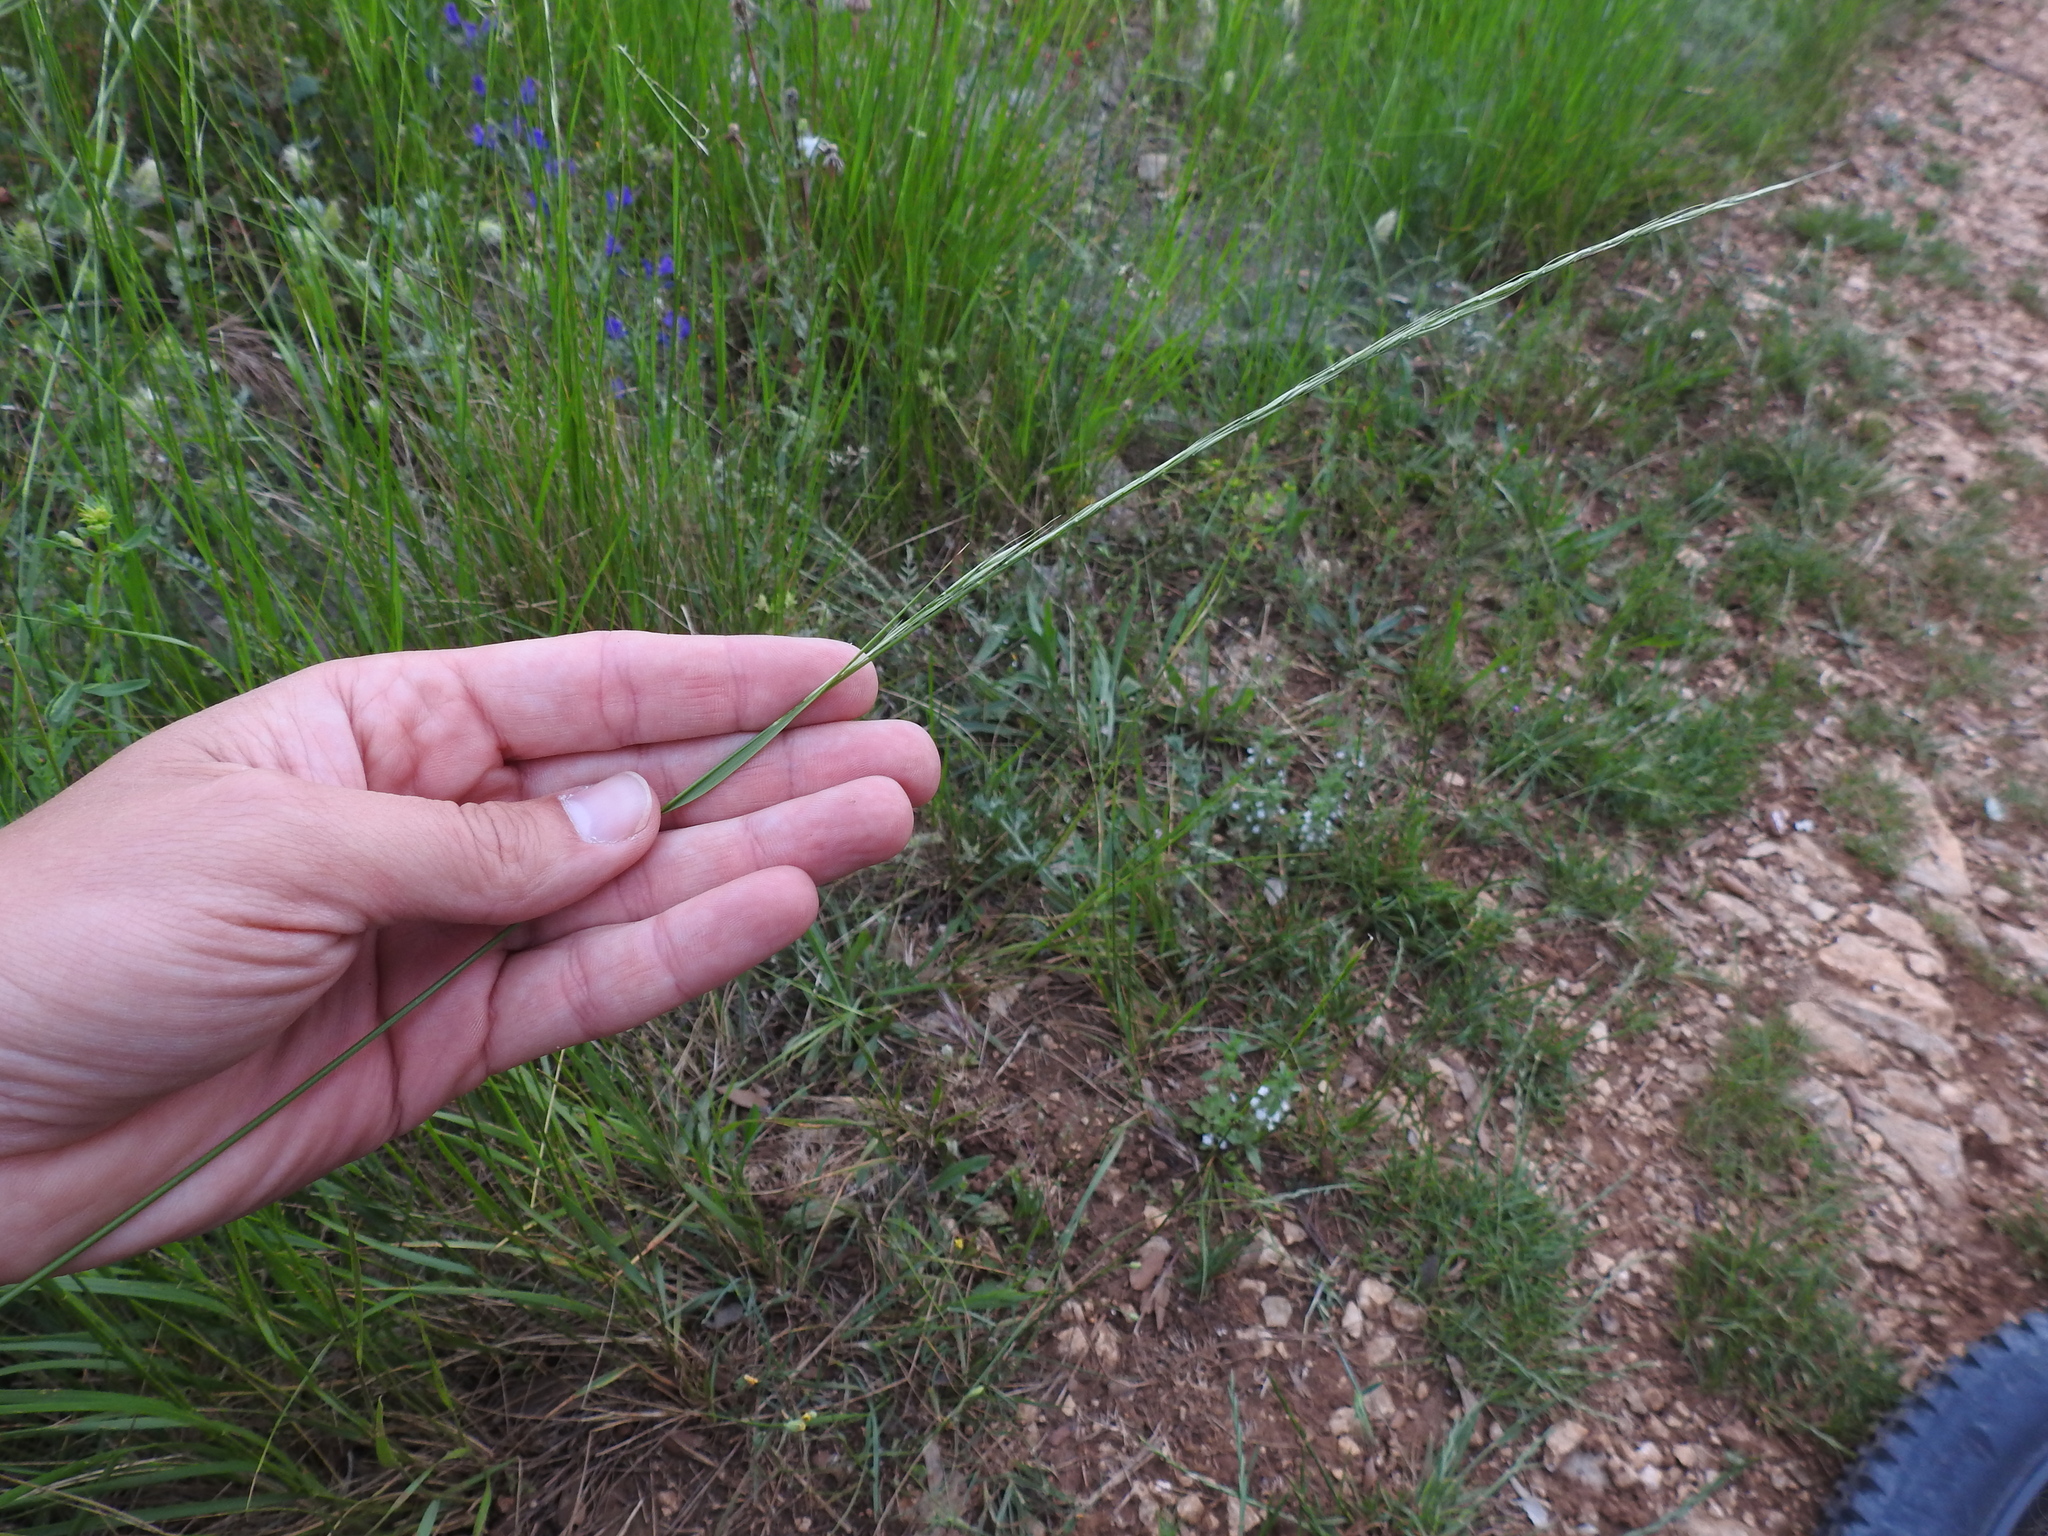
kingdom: Plantae
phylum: Tracheophyta
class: Liliopsida
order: Poales
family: Poaceae
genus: Achnatherum
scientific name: Achnatherum bromoides
